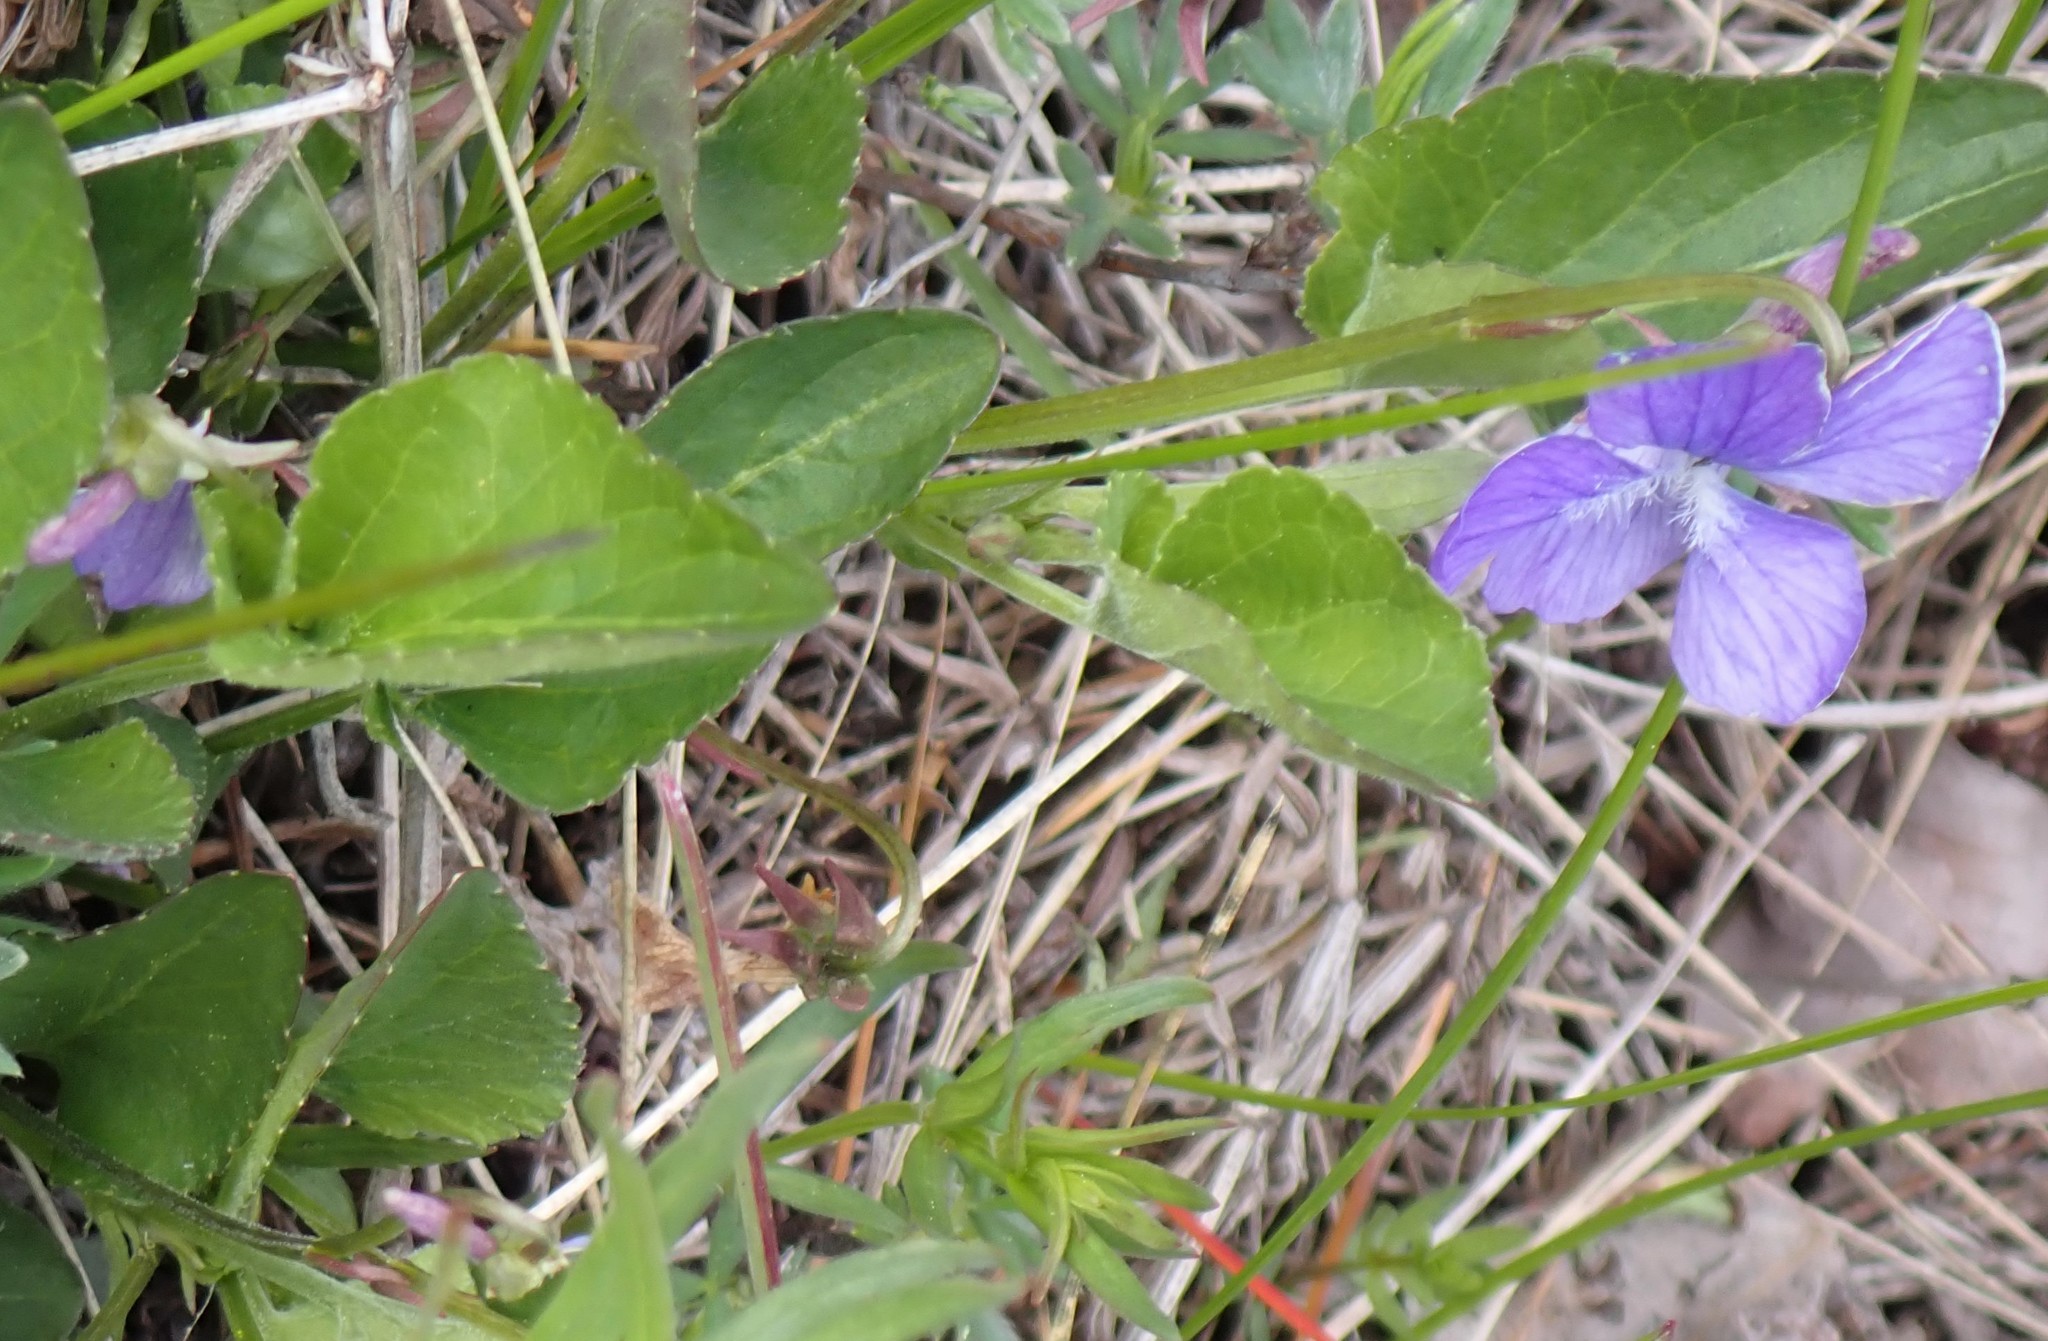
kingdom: Plantae
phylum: Tracheophyta
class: Magnoliopsida
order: Malpighiales
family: Violaceae
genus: Viola
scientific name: Viola adunca
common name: Sand violet
